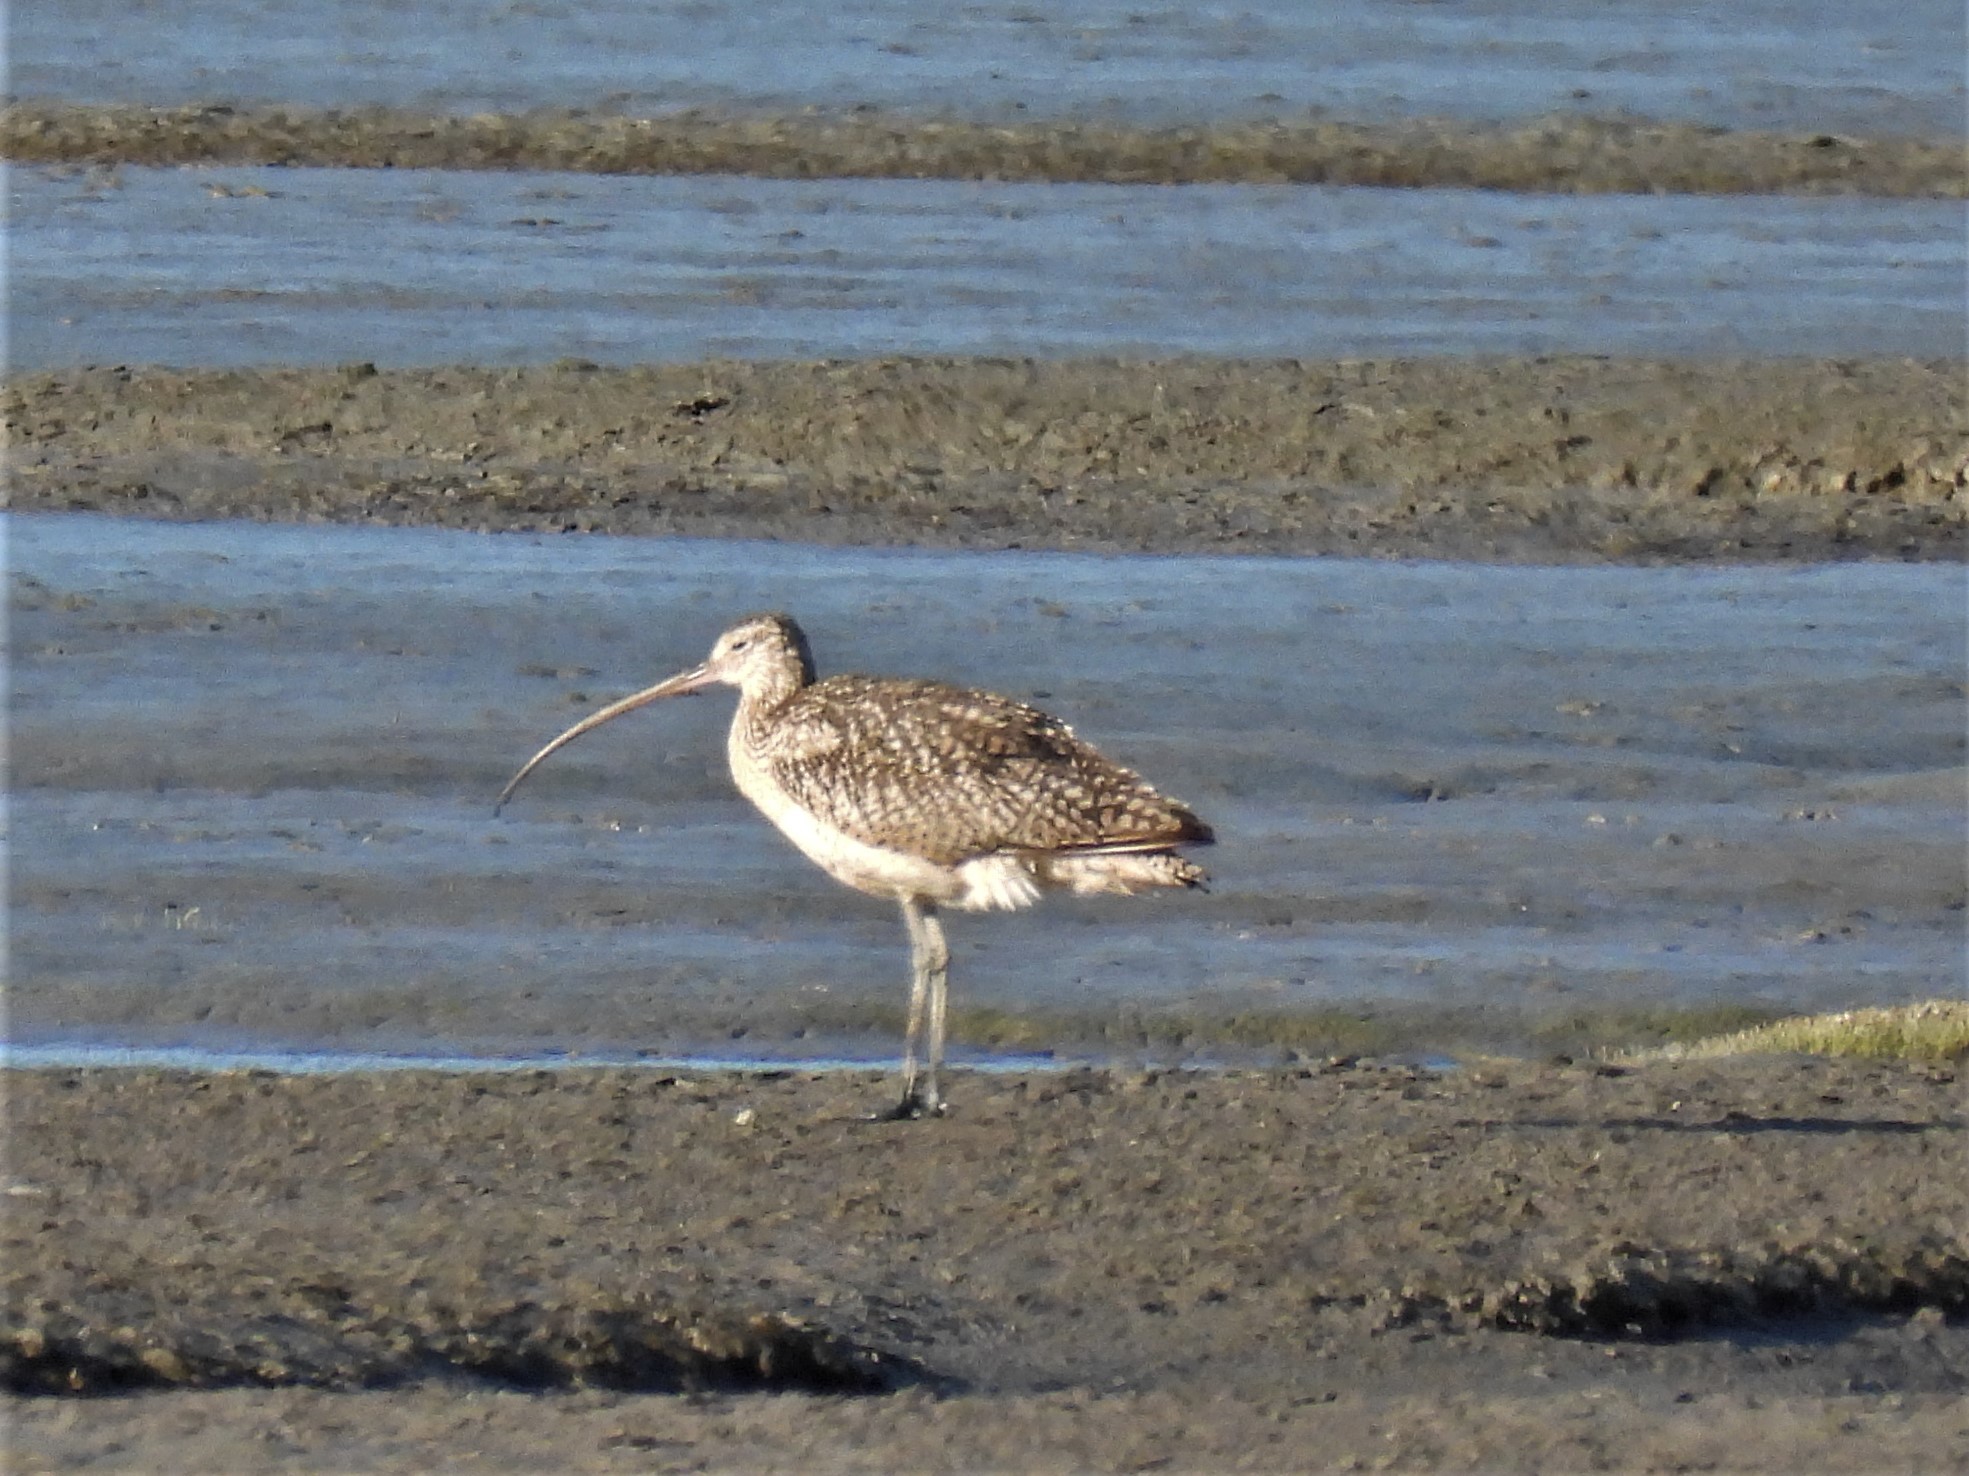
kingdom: Animalia
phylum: Chordata
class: Aves
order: Charadriiformes
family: Scolopacidae
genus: Numenius
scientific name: Numenius americanus
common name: Long-billed curlew
